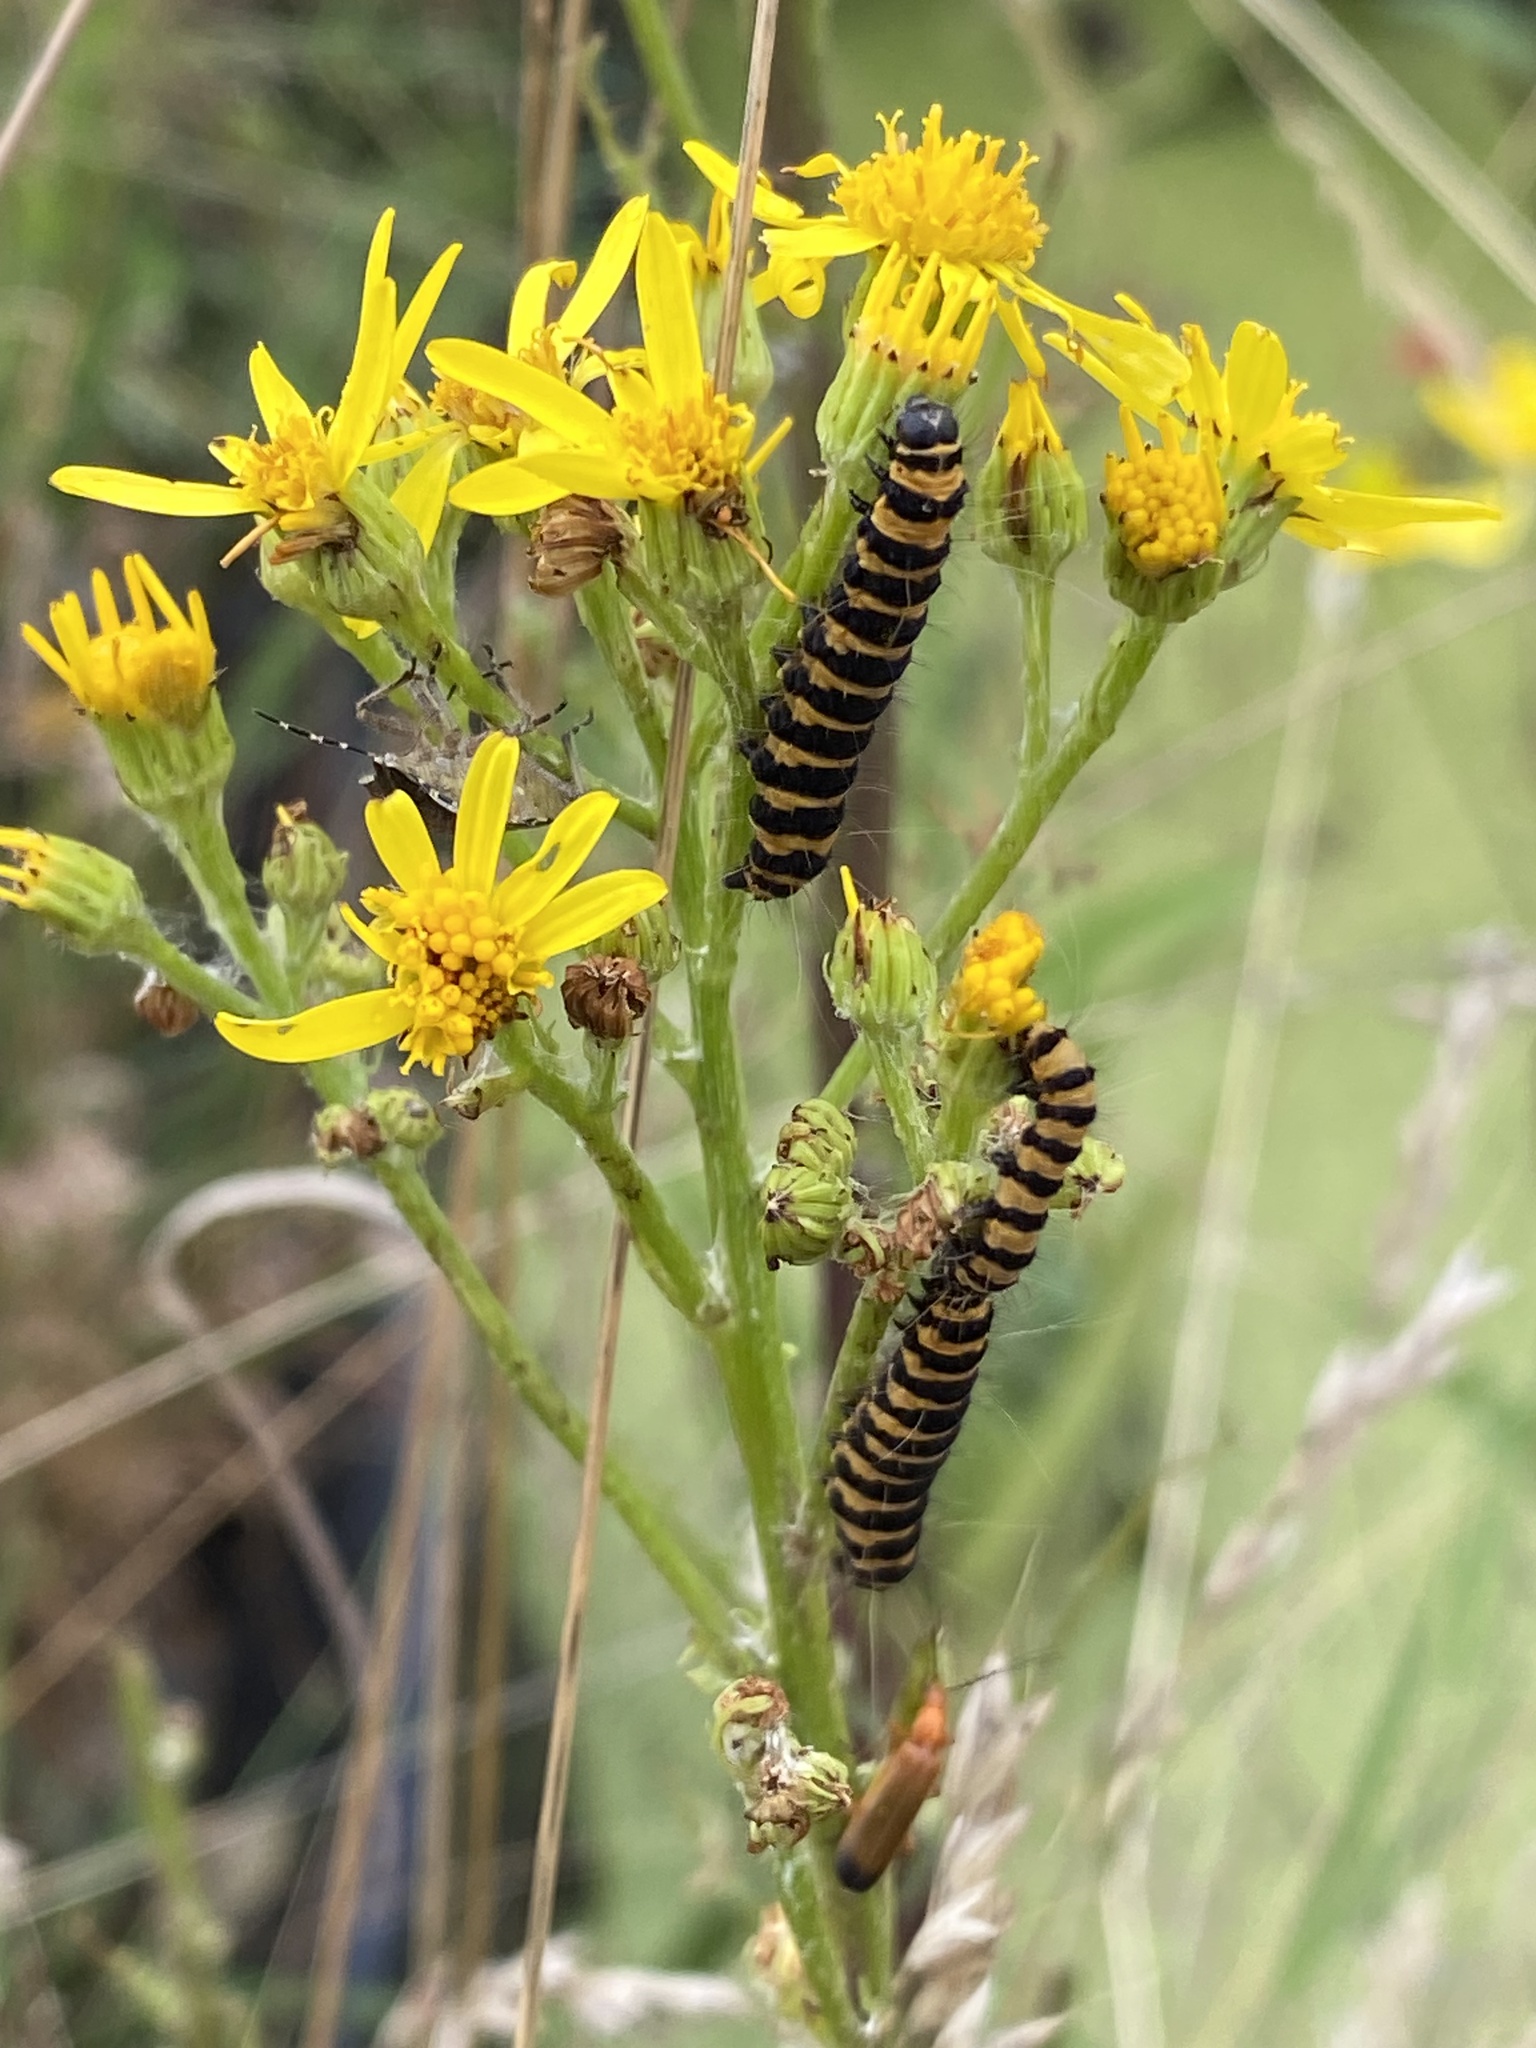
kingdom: Animalia
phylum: Arthropoda
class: Insecta
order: Lepidoptera
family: Erebidae
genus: Tyria
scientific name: Tyria jacobaeae
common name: Cinnabar
